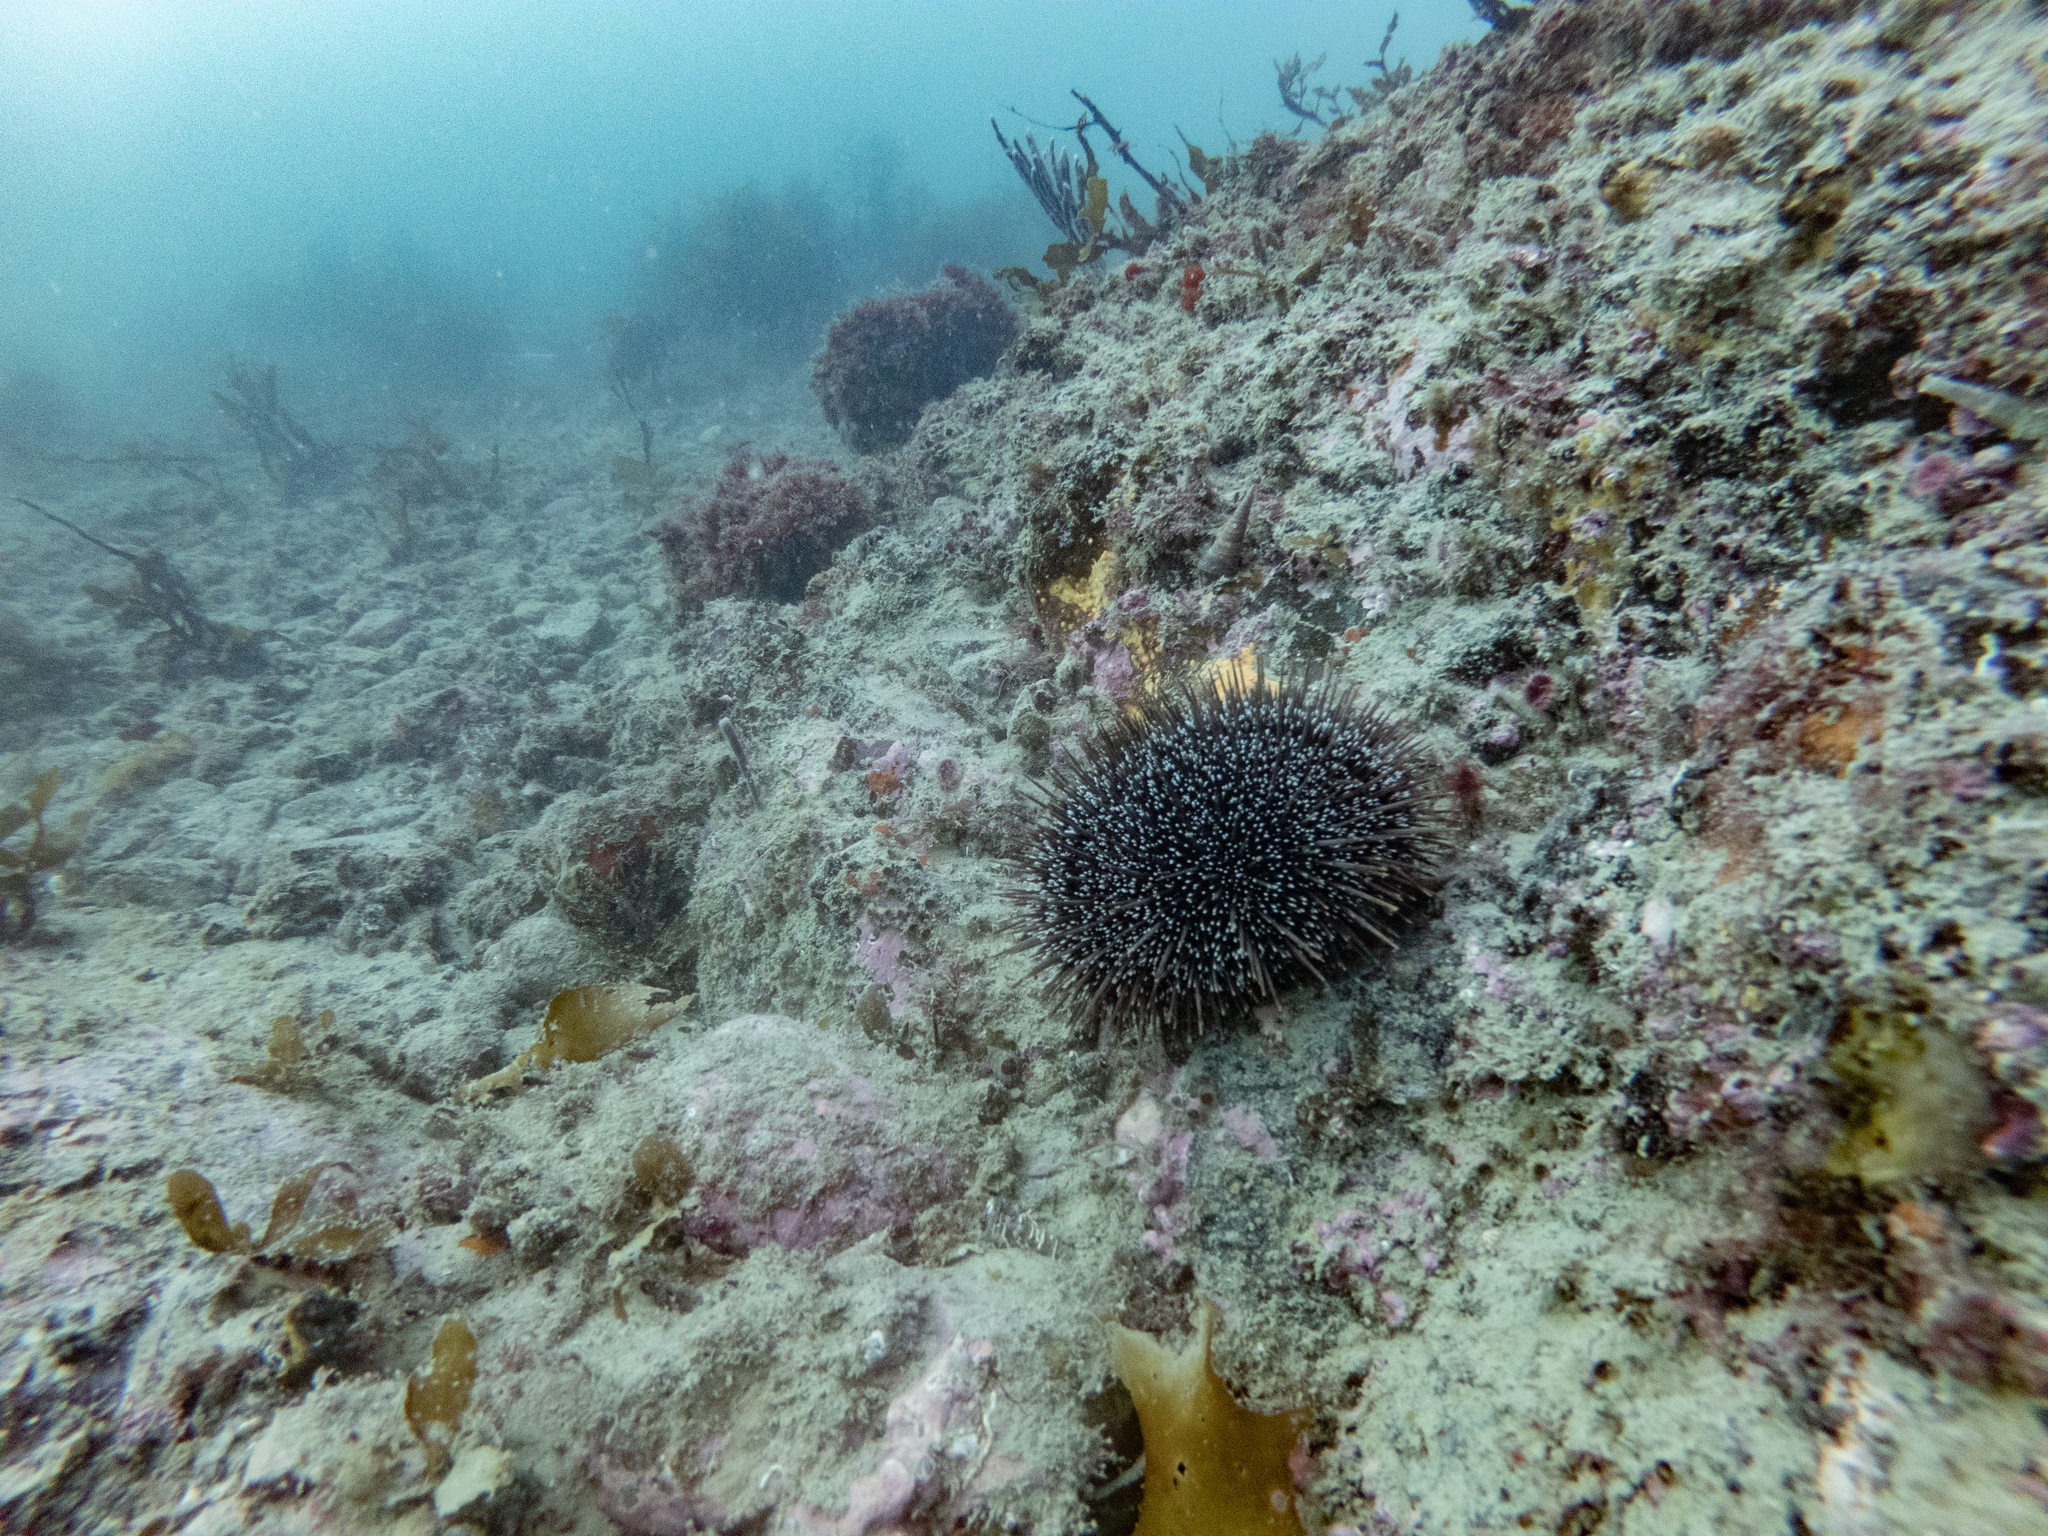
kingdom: Animalia
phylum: Echinodermata
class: Echinoidea
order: Camarodonta
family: Echinometridae
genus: Evechinus
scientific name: Evechinus chloroticus
